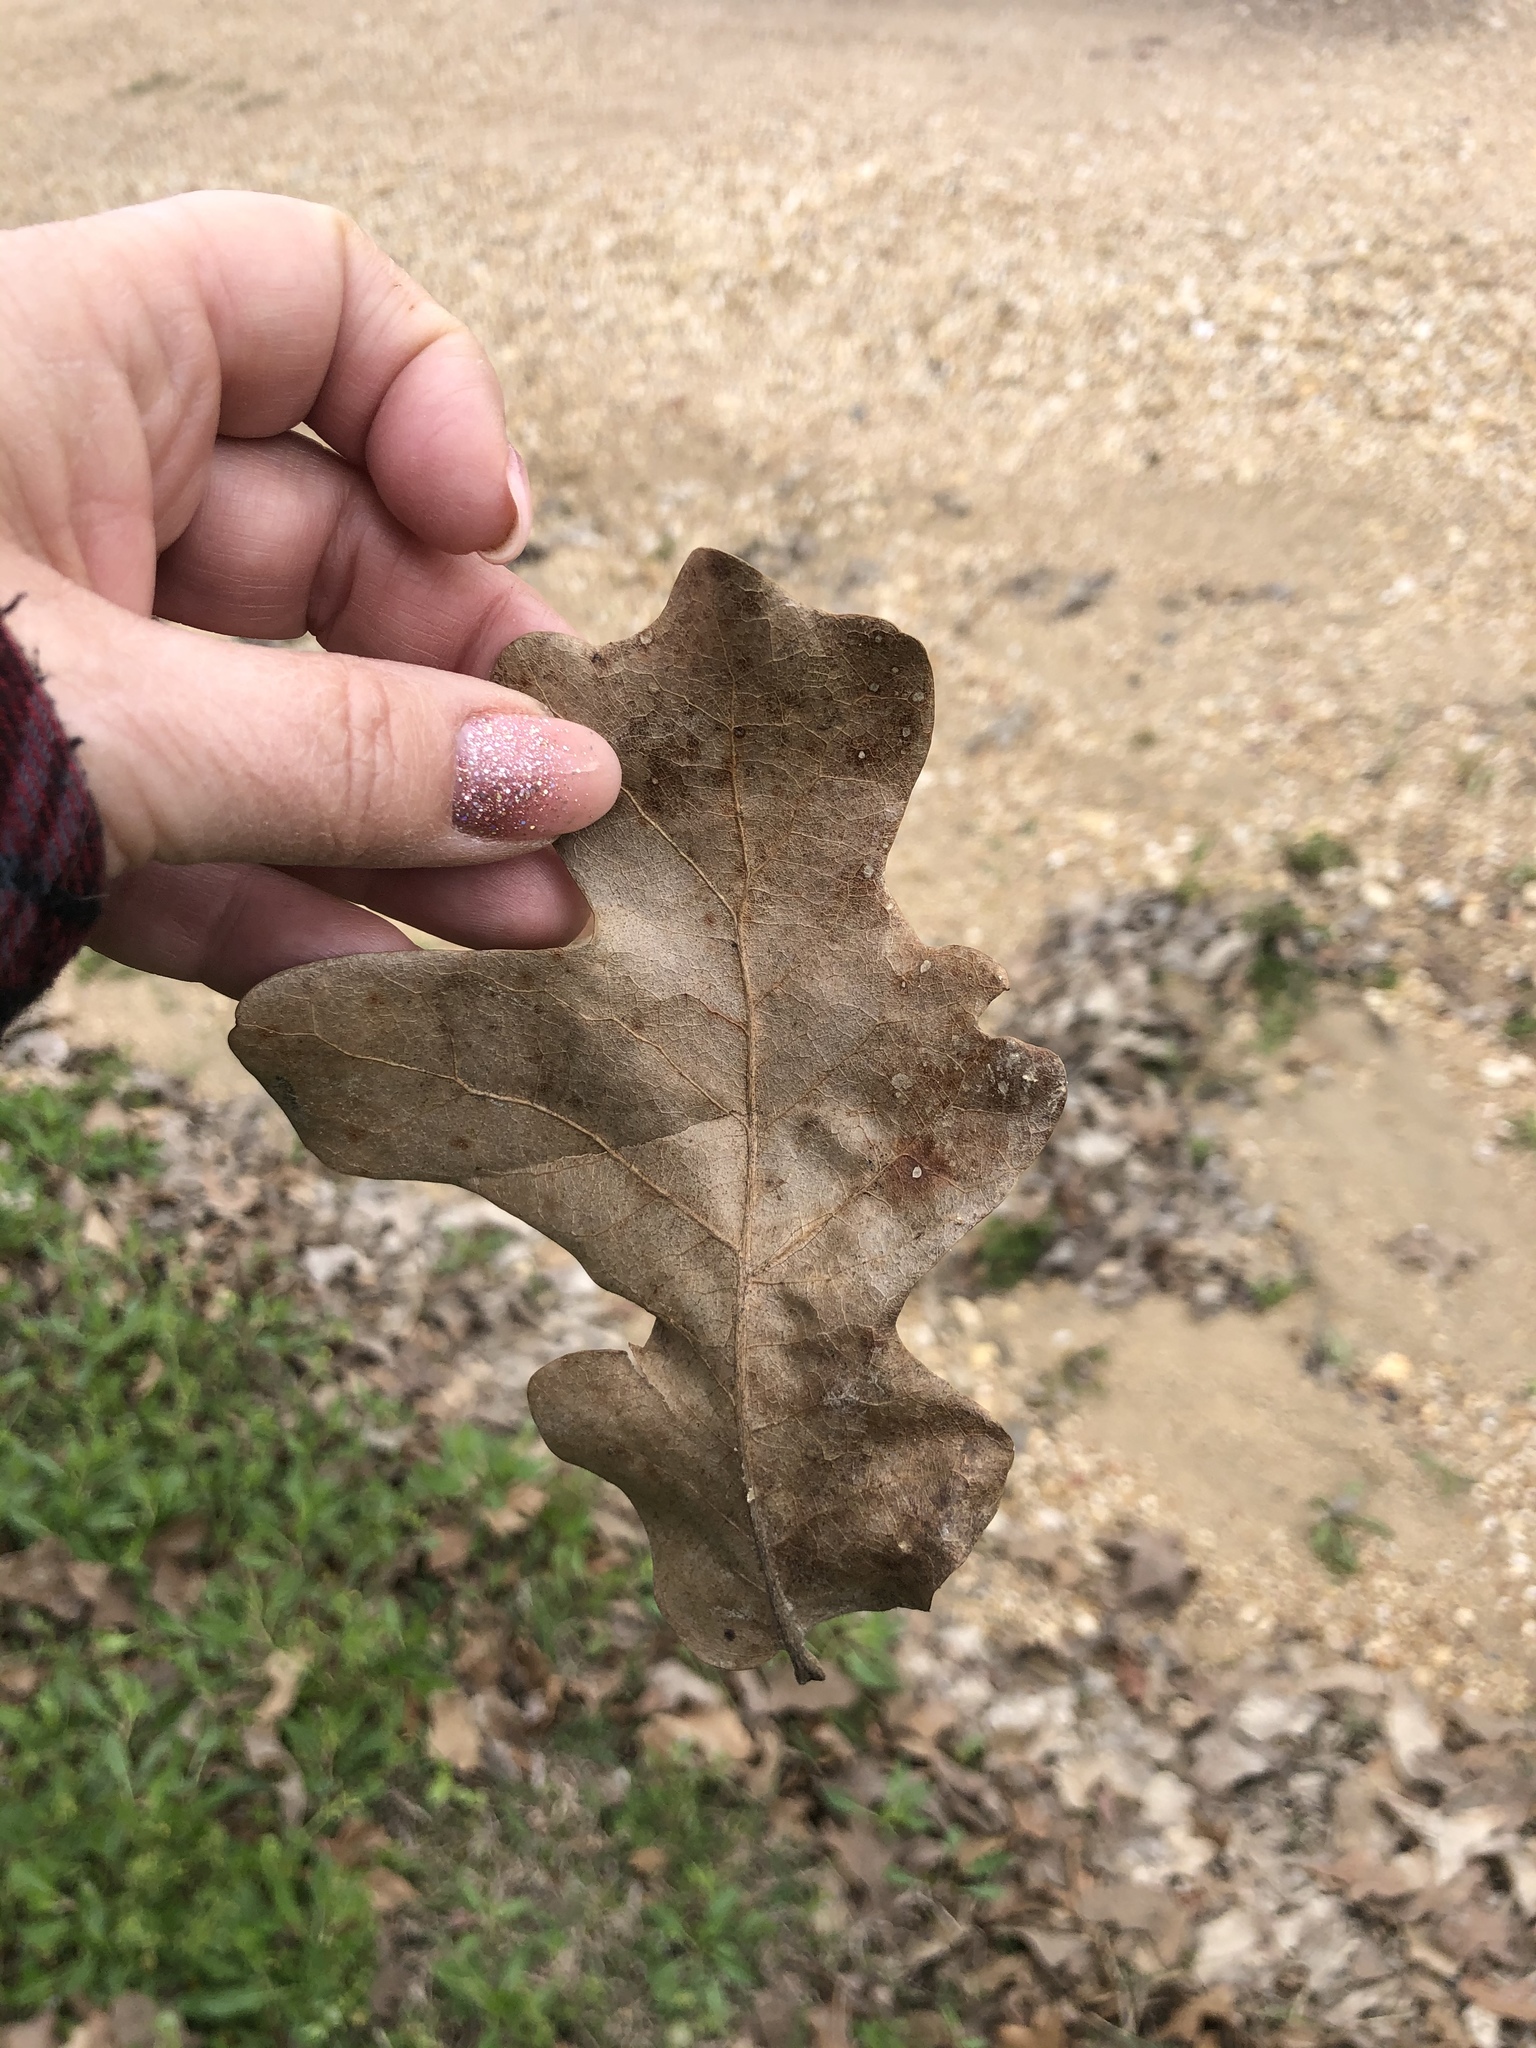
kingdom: Plantae
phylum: Tracheophyta
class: Magnoliopsida
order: Fagales
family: Fagaceae
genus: Quercus
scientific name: Quercus stellata
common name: Post oak
